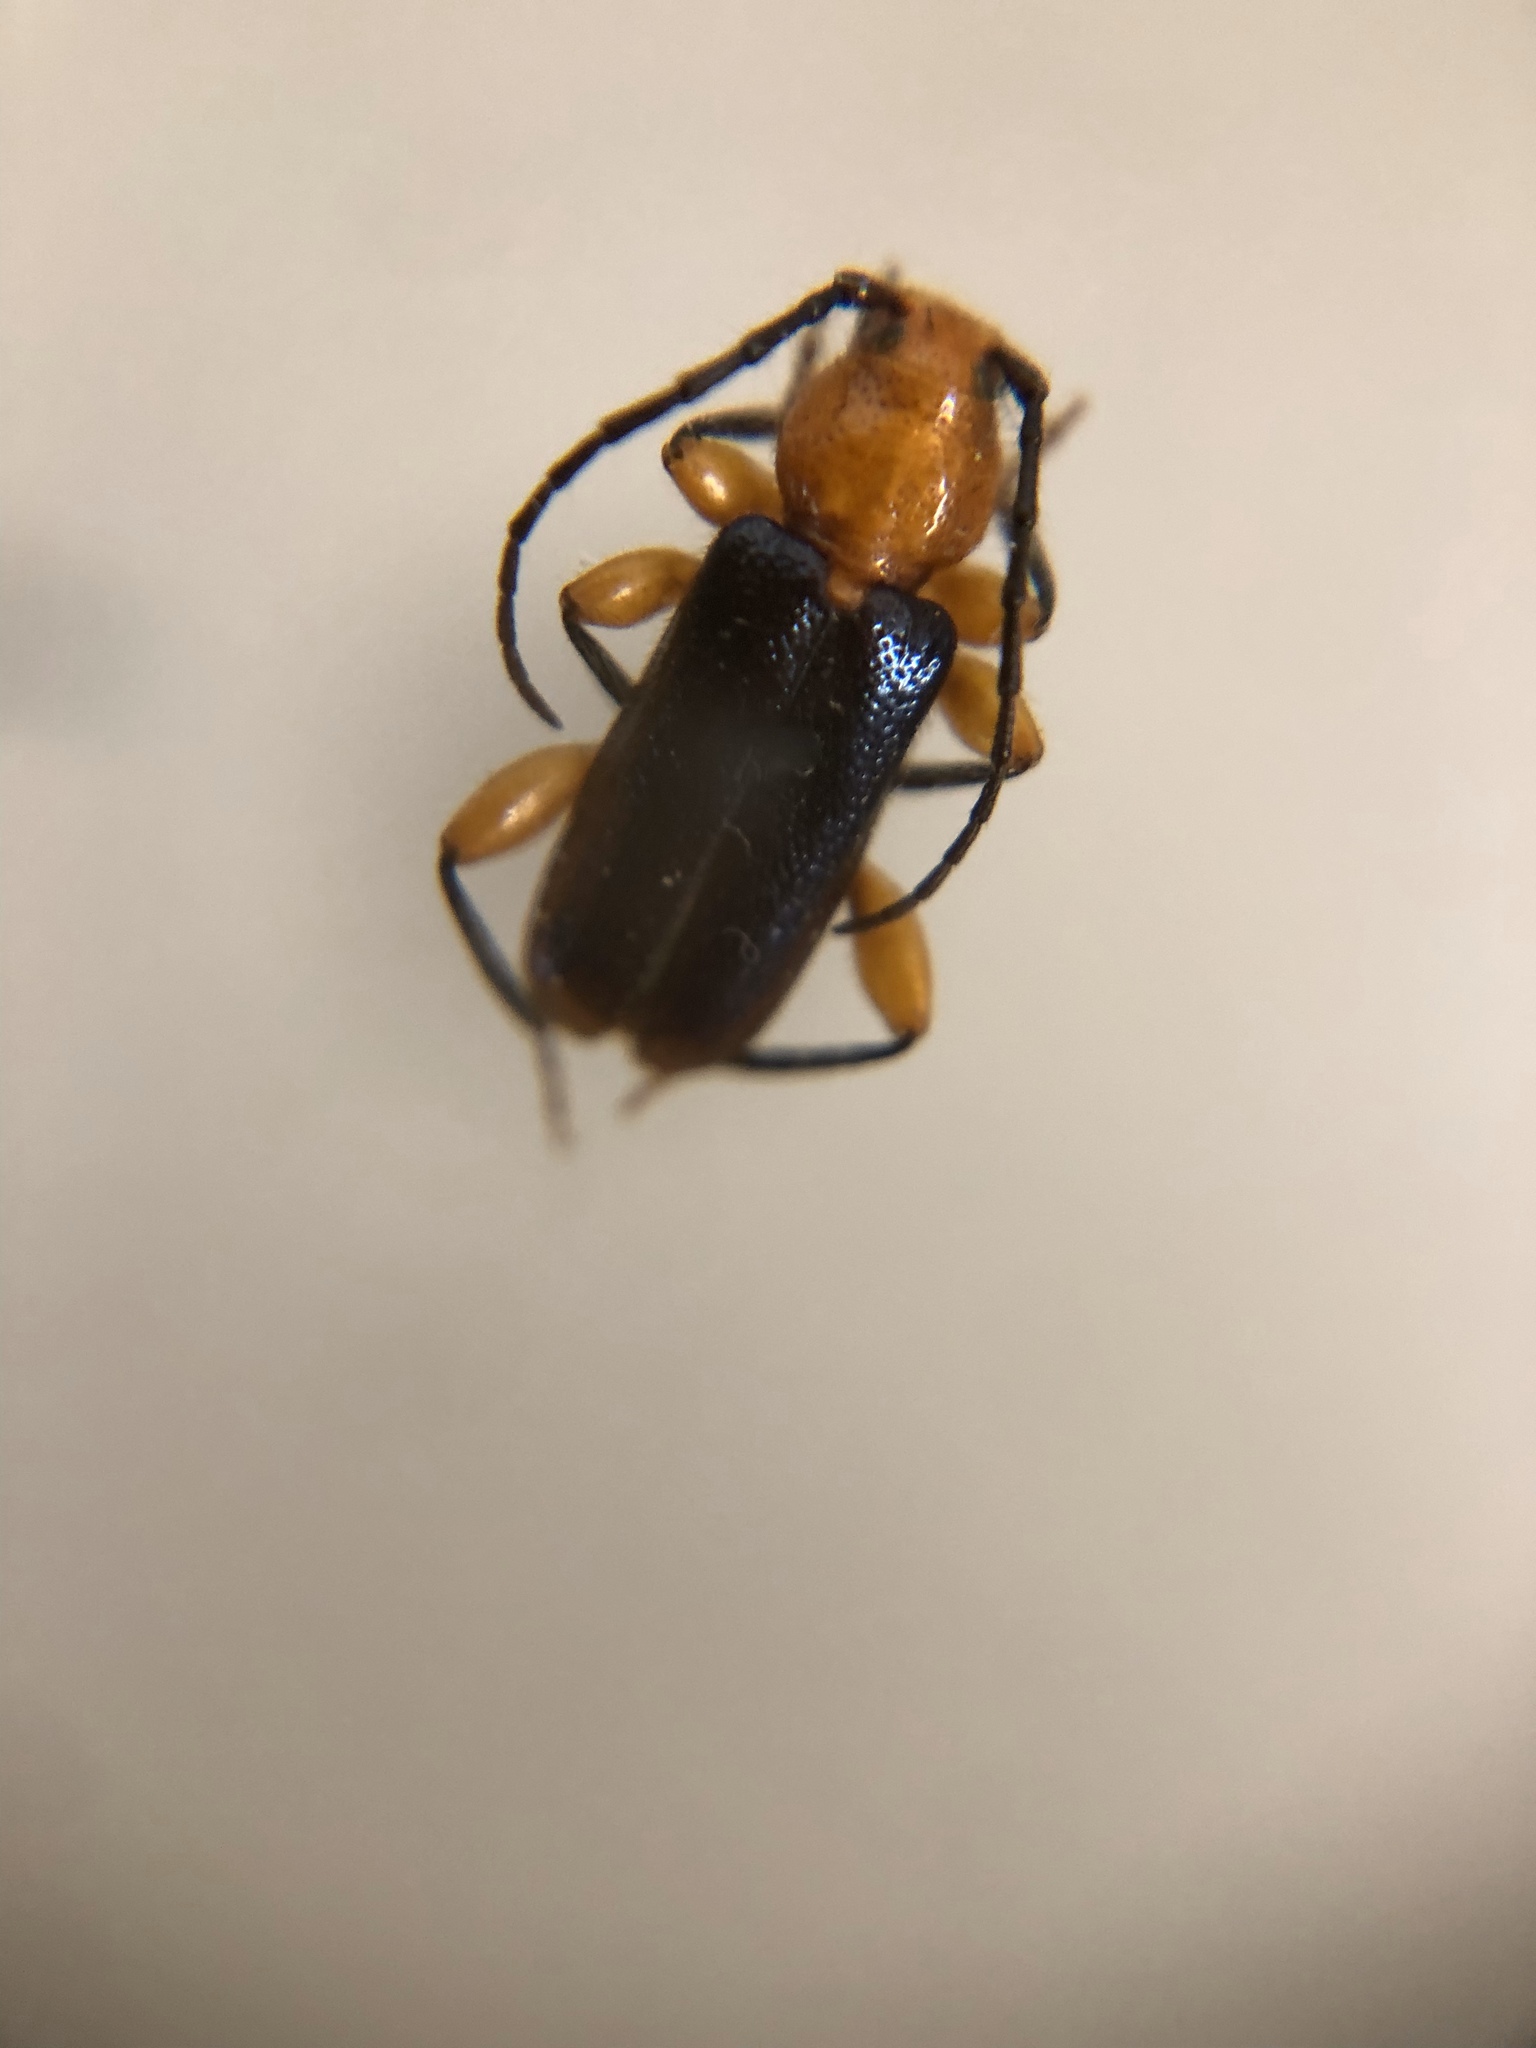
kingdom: Animalia
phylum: Arthropoda
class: Insecta
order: Coleoptera
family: Cerambycidae
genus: Phymatodes
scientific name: Phymatodes amoenus
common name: Grape-vine phymatodes
